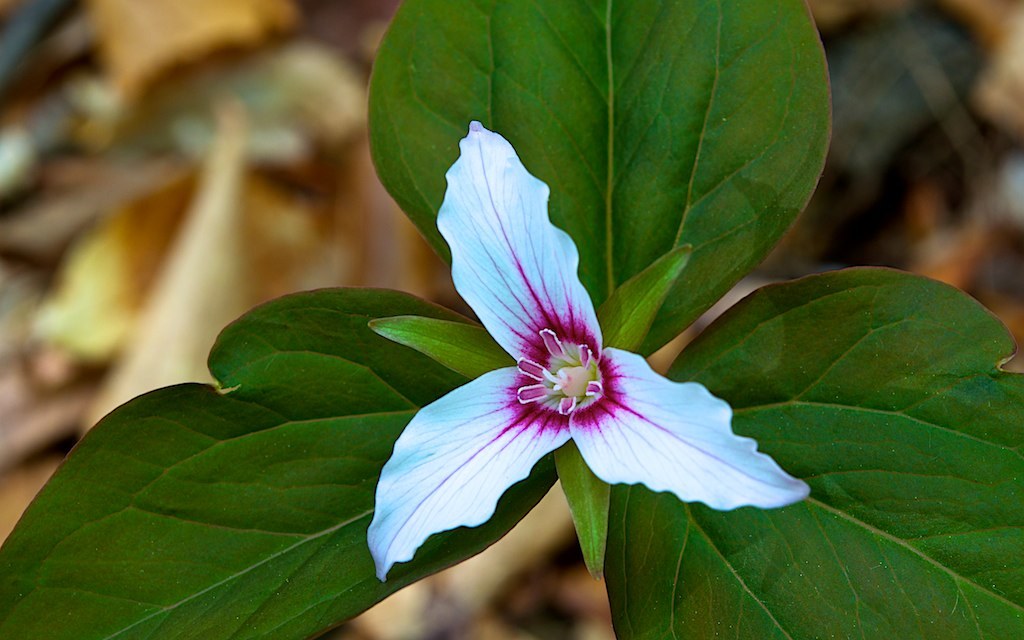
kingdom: Plantae
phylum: Tracheophyta
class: Liliopsida
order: Liliales
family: Melanthiaceae
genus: Trillium
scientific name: Trillium undulatum
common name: Paint trillium
